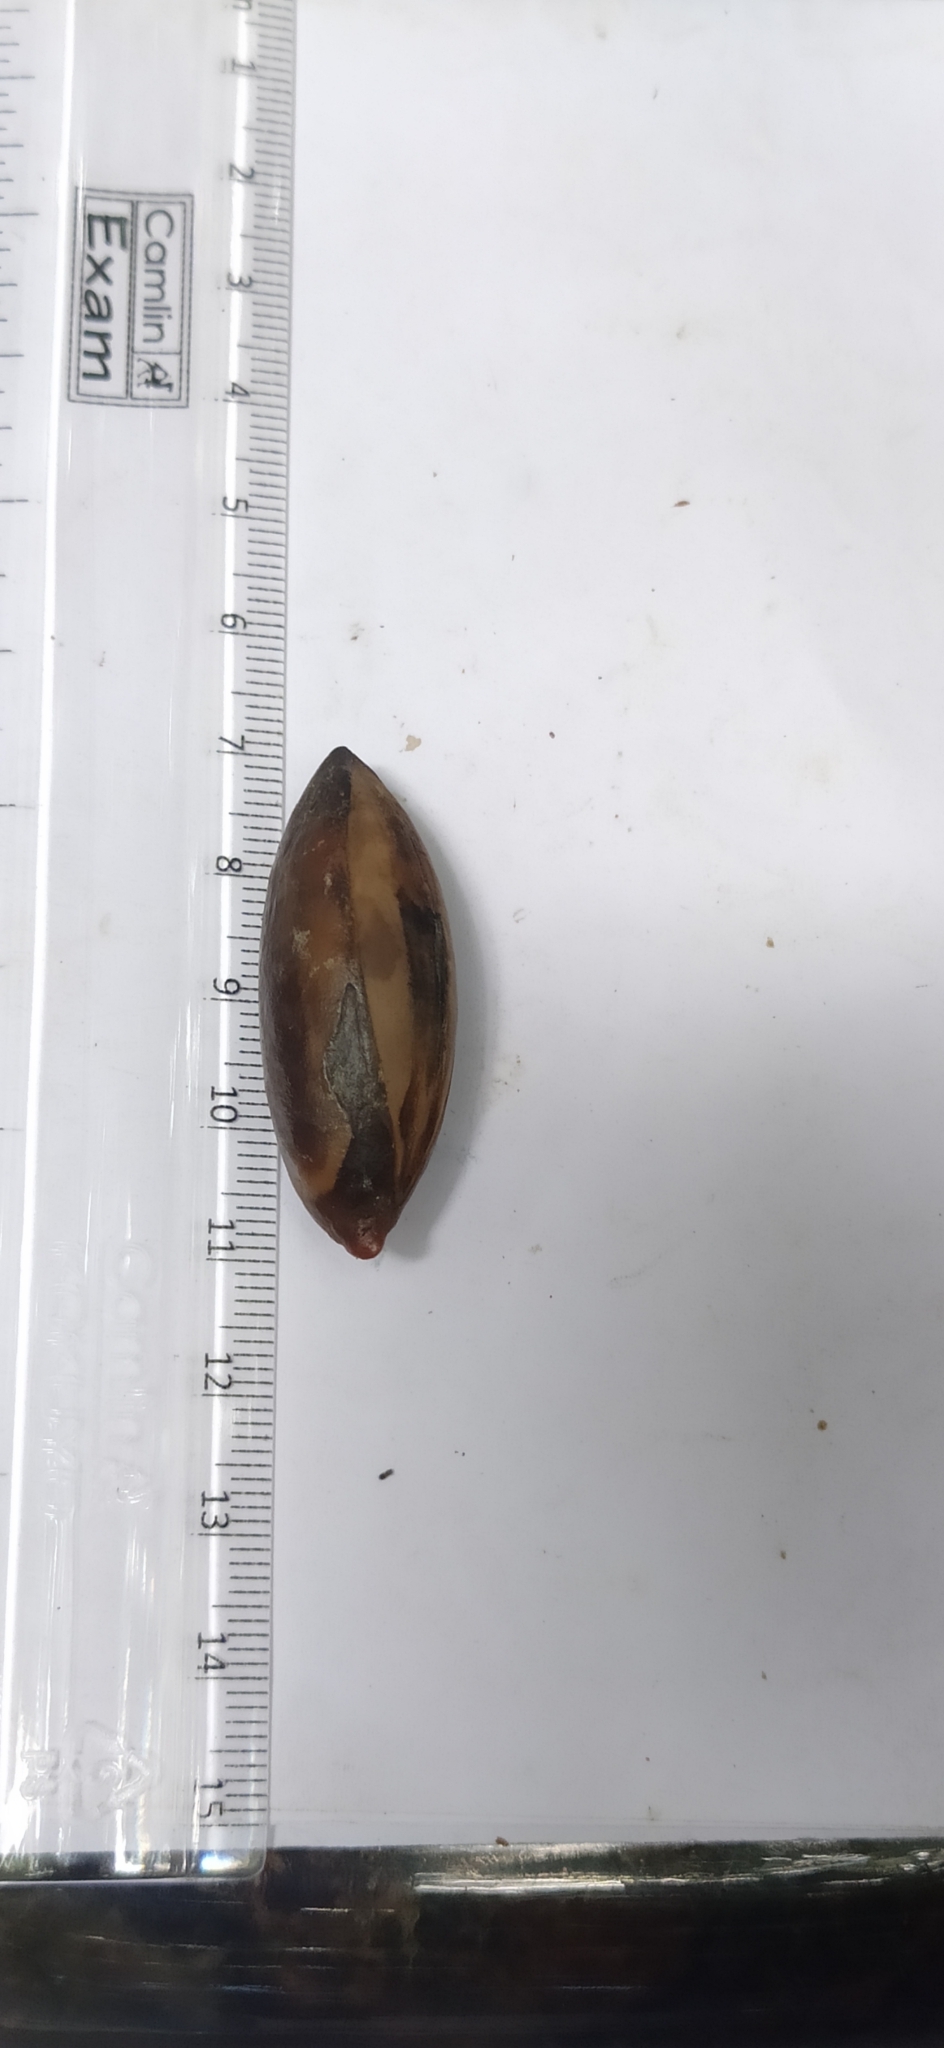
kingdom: Plantae
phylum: Tracheophyta
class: Magnoliopsida
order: Ericales
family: Sapotaceae
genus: Palaquium
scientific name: Palaquium ellipticum
